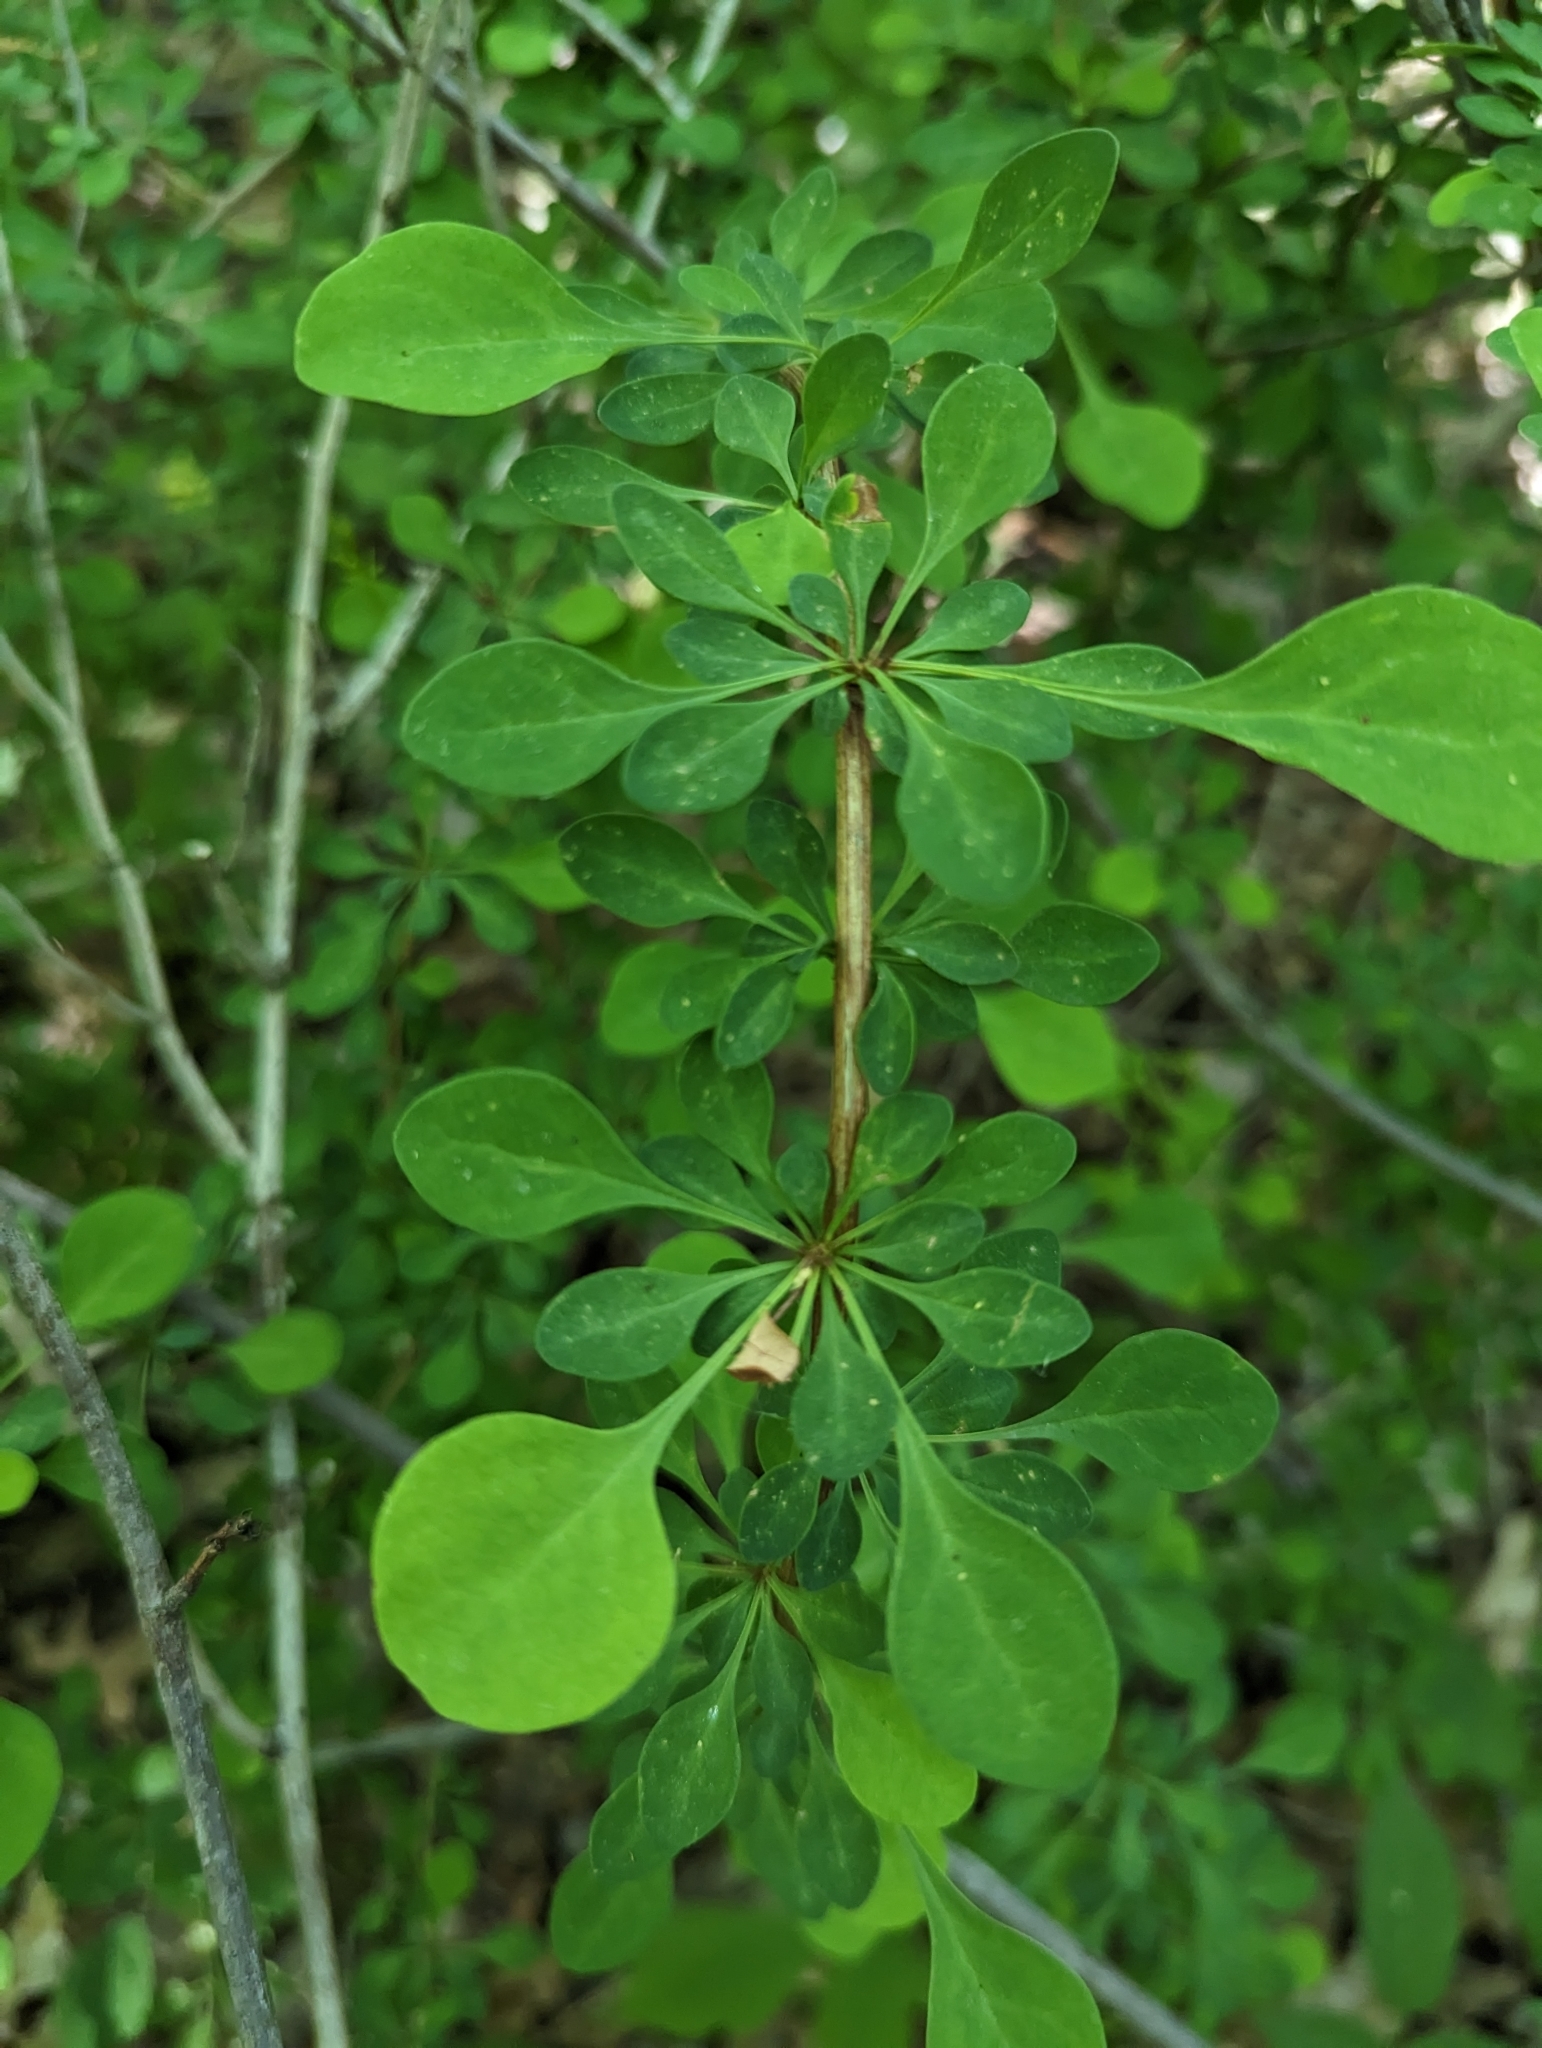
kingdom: Plantae
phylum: Tracheophyta
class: Magnoliopsida
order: Ranunculales
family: Berberidaceae
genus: Berberis
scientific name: Berberis thunbergii
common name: Japanese barberry
